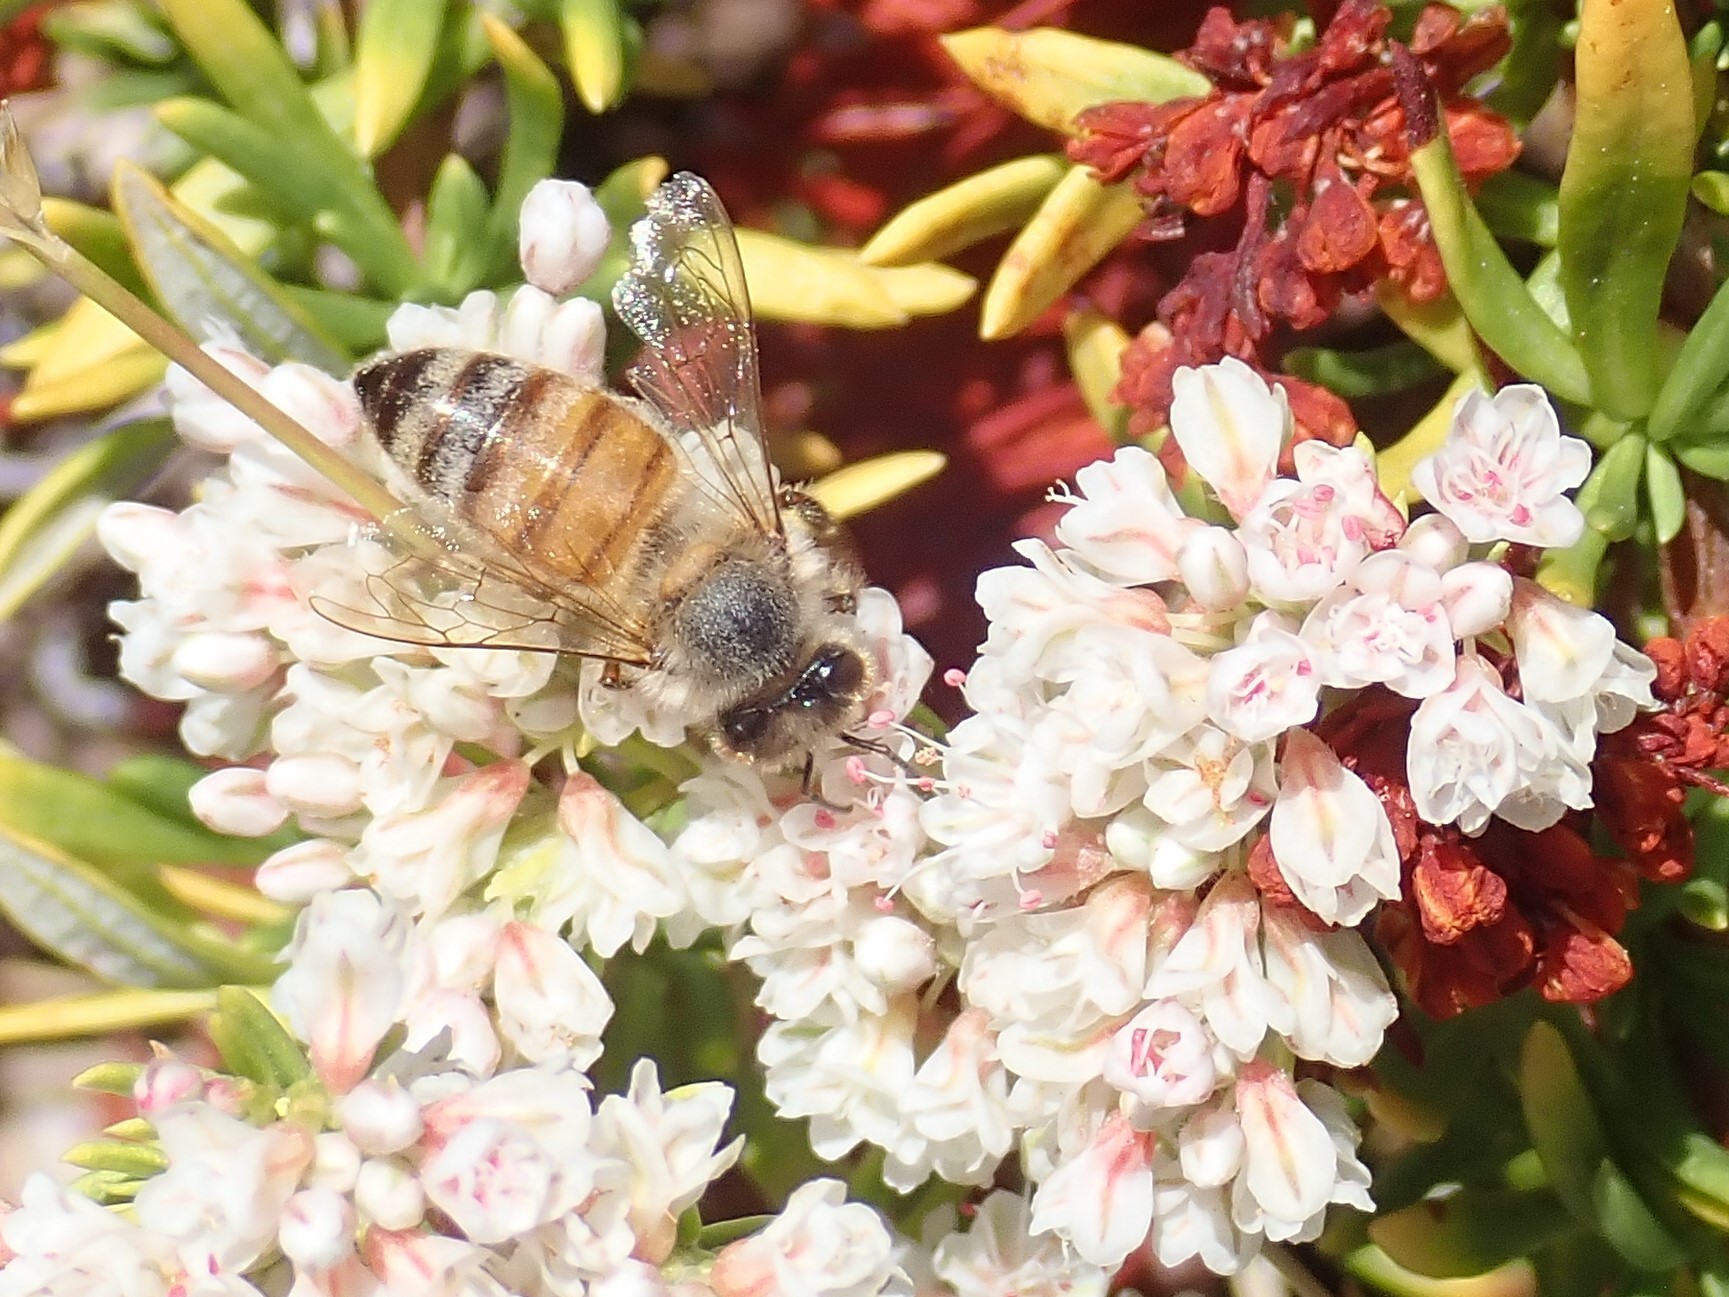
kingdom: Animalia
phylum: Arthropoda
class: Insecta
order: Hymenoptera
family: Apidae
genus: Apis
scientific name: Apis mellifera
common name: Honey bee
